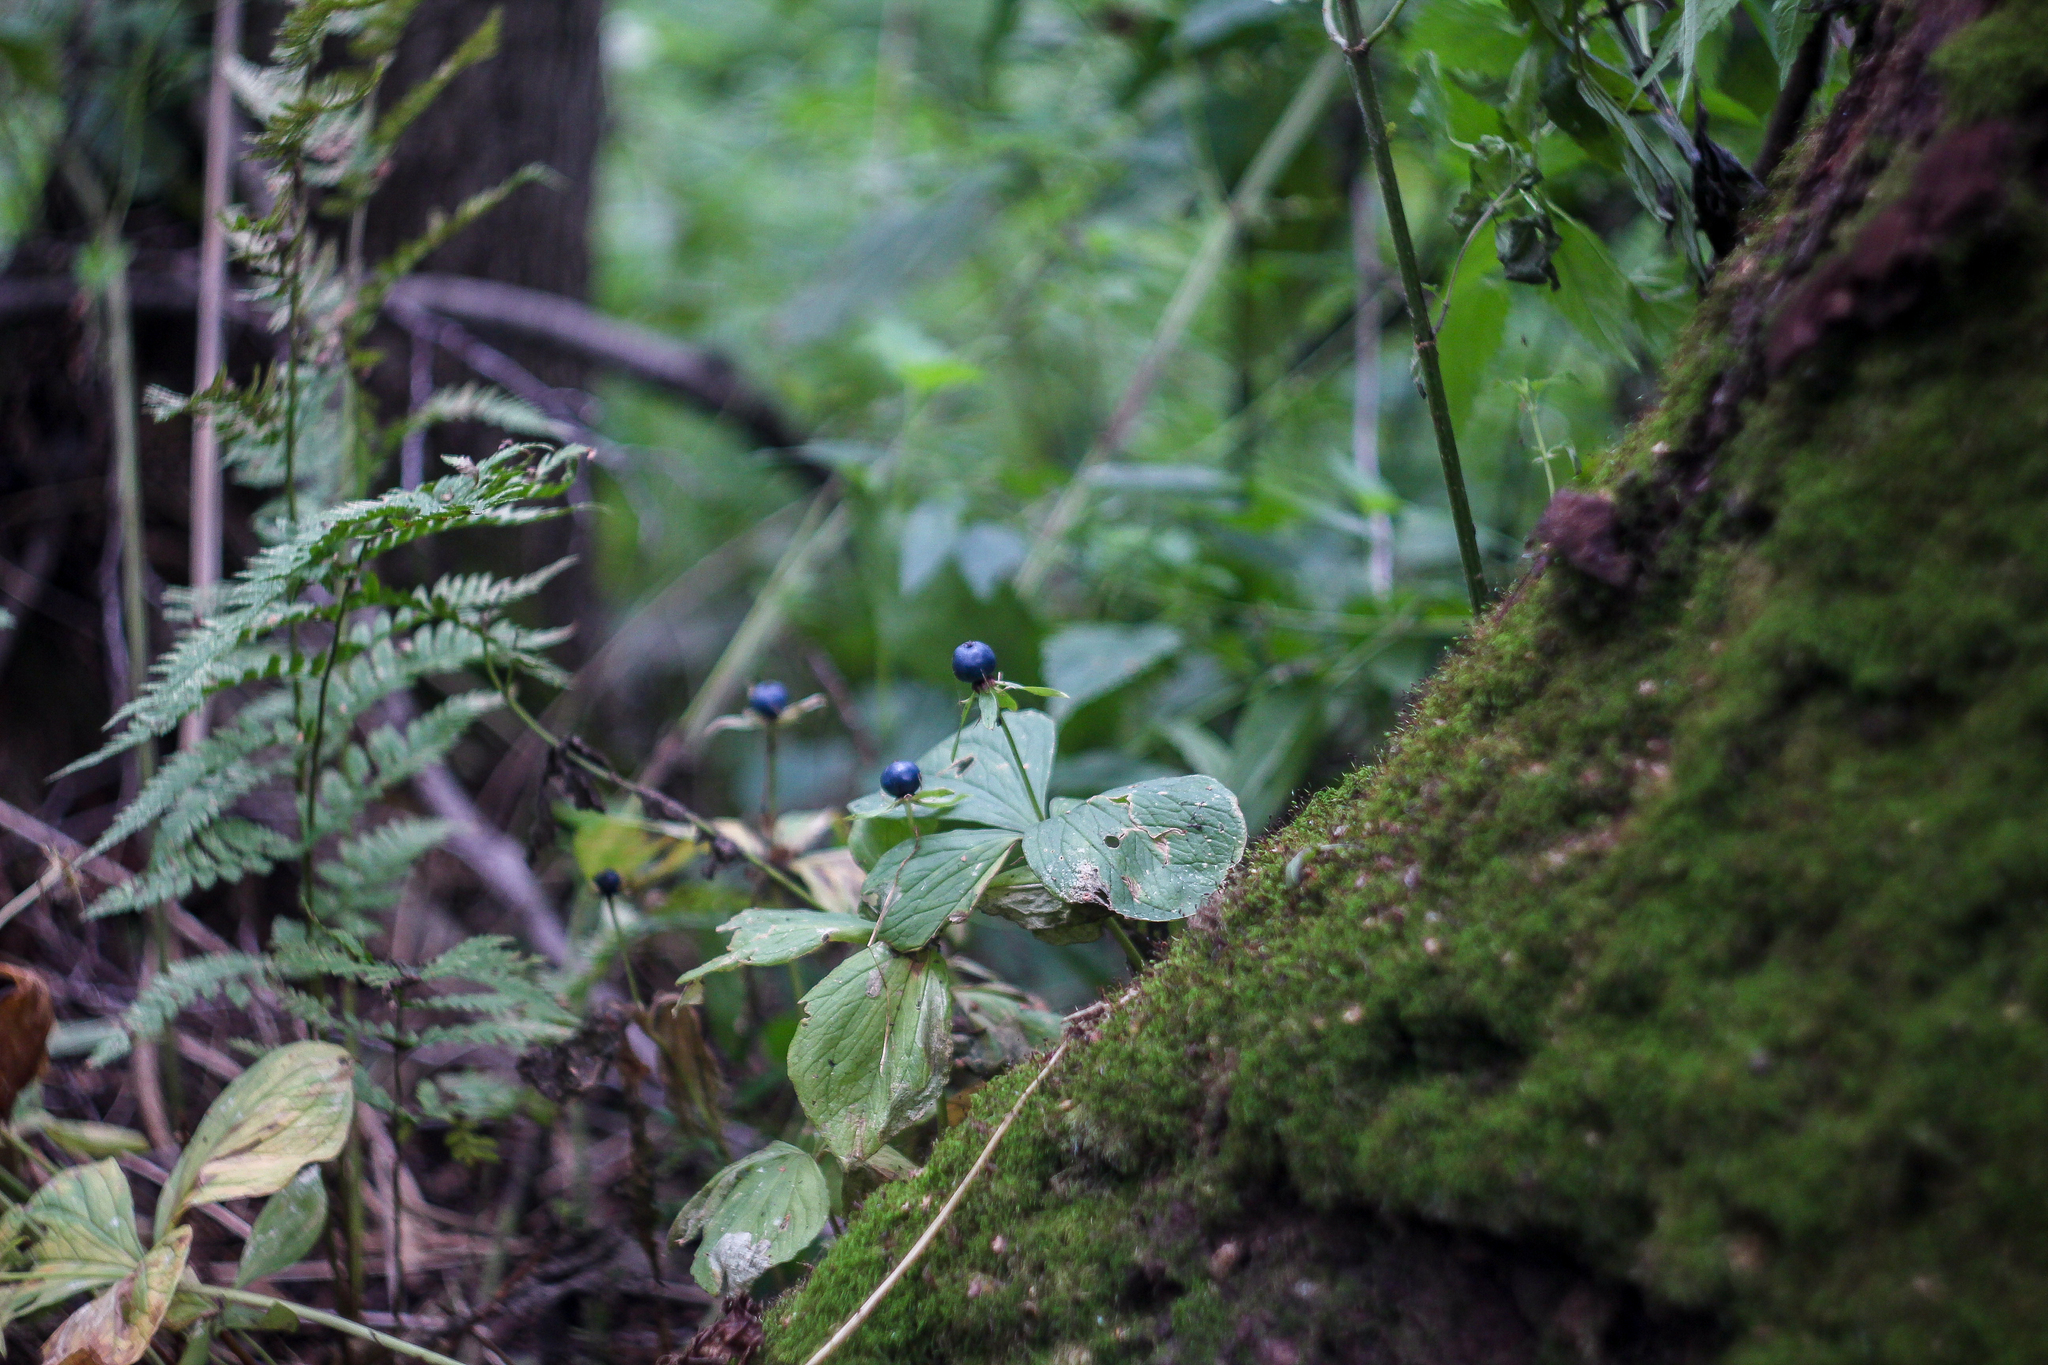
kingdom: Plantae
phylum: Tracheophyta
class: Liliopsida
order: Liliales
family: Melanthiaceae
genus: Paris
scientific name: Paris quadrifolia
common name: Herb-paris
